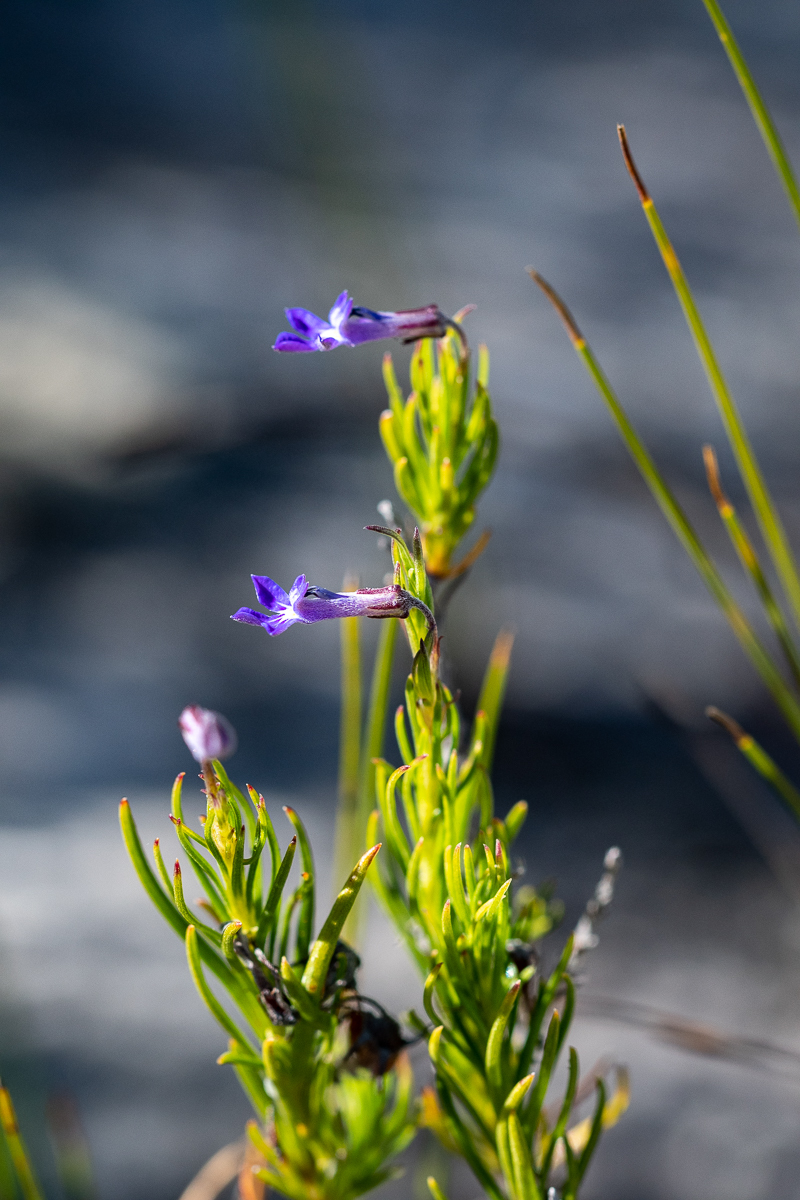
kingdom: Plantae
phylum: Tracheophyta
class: Magnoliopsida
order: Asterales
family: Campanulaceae
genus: Lobelia
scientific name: Lobelia pinifolia
